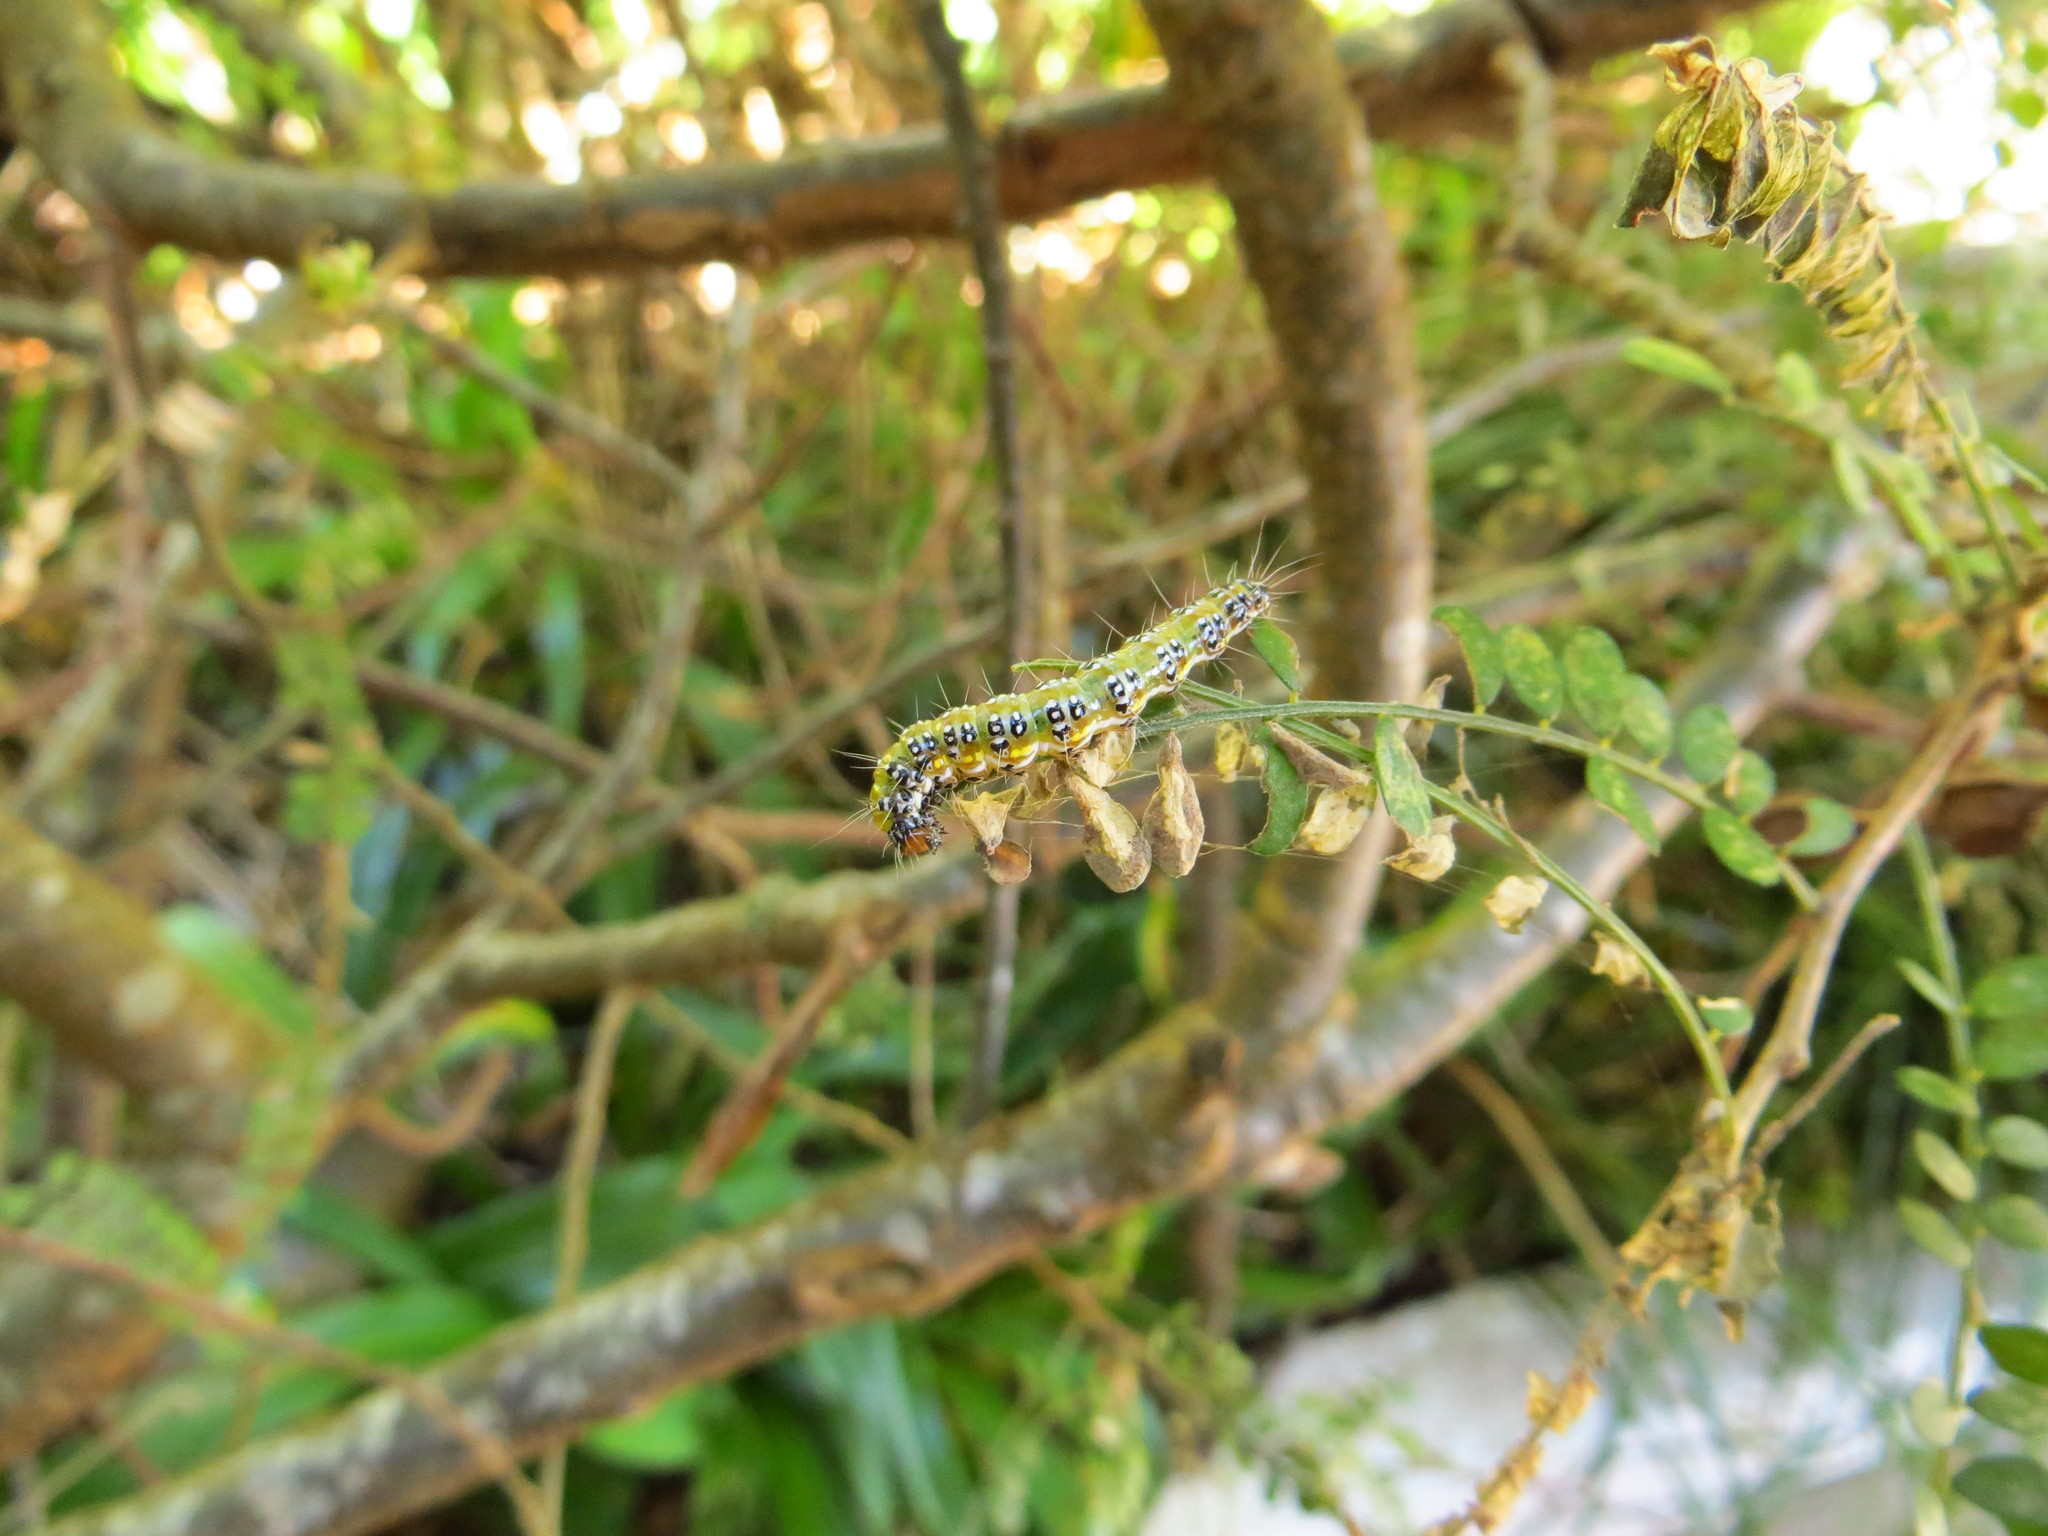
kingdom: Animalia
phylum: Arthropoda
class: Insecta
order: Lepidoptera
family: Crambidae
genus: Uresiphita
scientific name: Uresiphita
